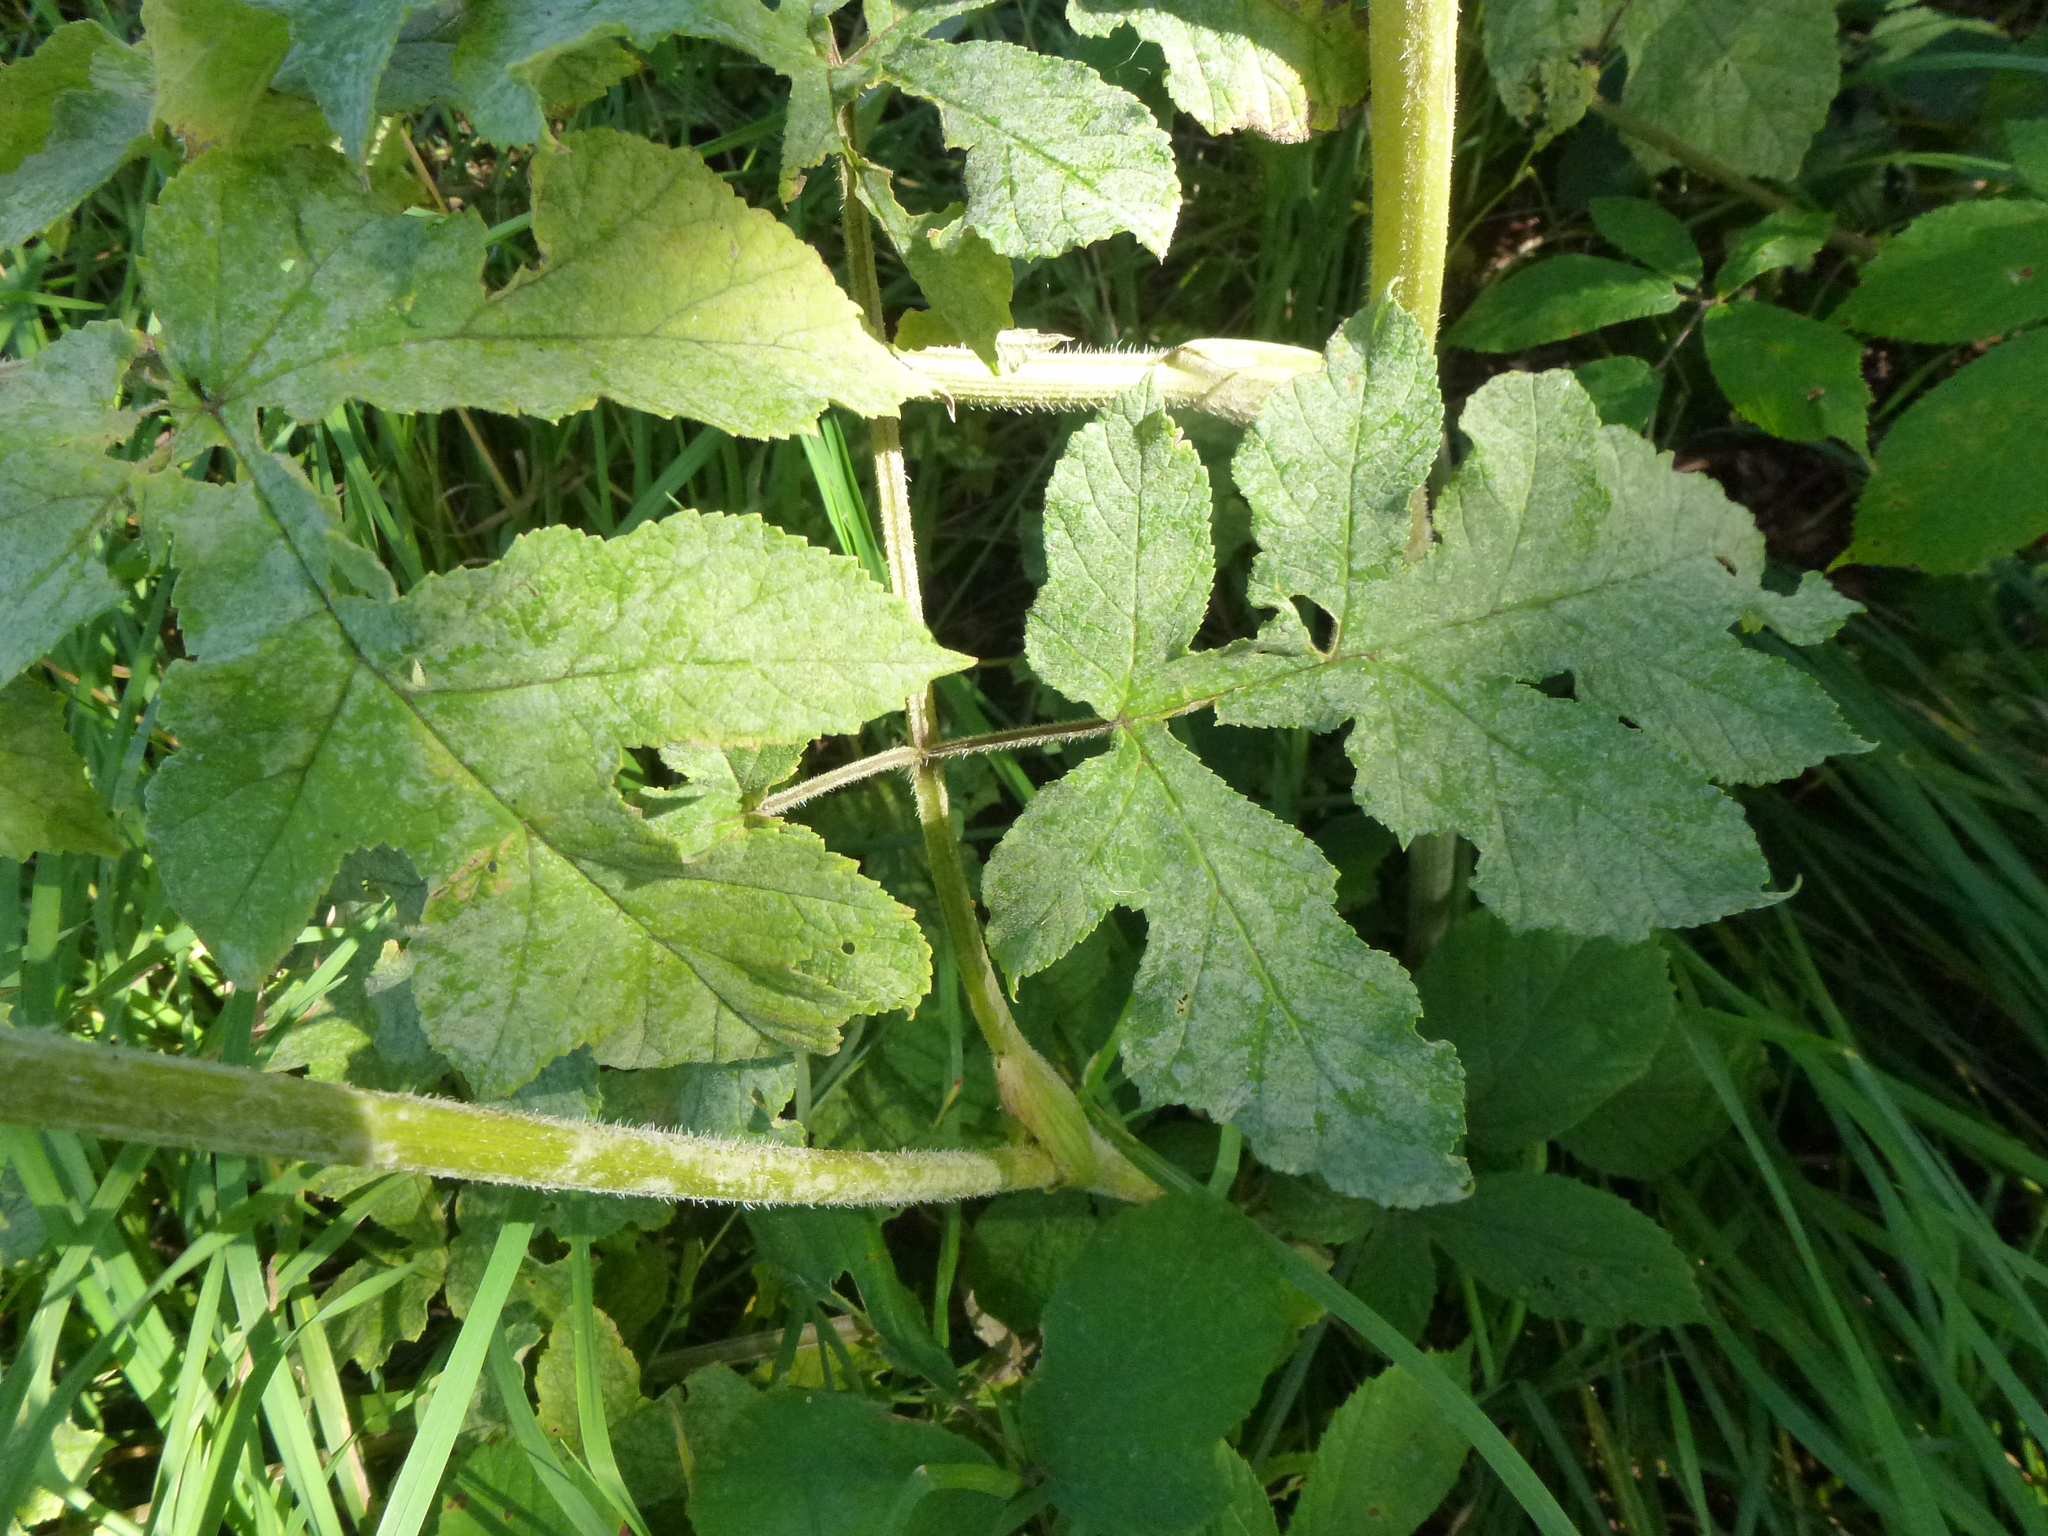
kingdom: Fungi
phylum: Ascomycota
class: Leotiomycetes
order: Helotiales
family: Erysiphaceae
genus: Erysiphe
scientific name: Erysiphe heraclei
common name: Umbellifer mildew
